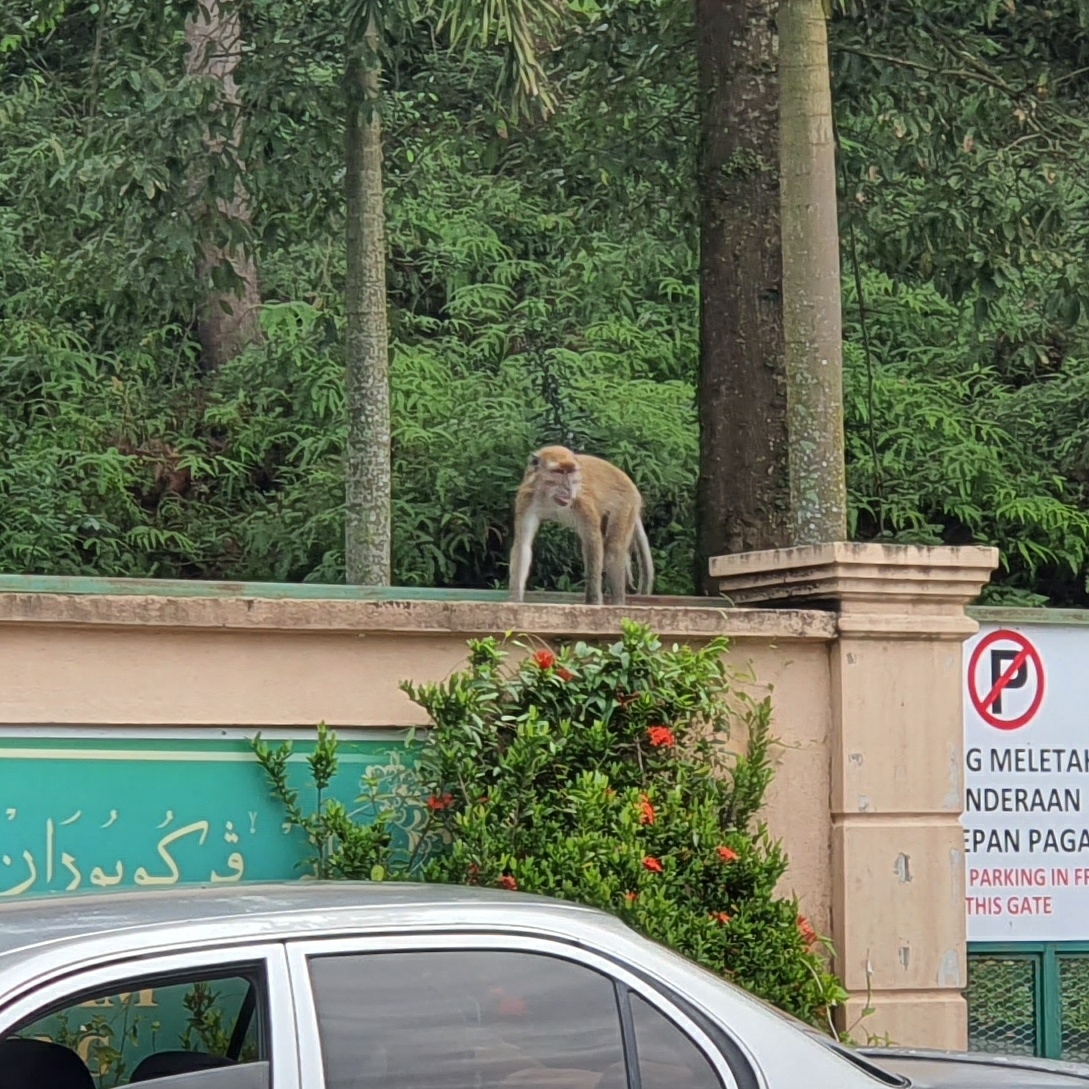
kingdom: Animalia
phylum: Chordata
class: Mammalia
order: Primates
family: Cercopithecidae
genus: Macaca
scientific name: Macaca fascicularis
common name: Crab-eating macaque
